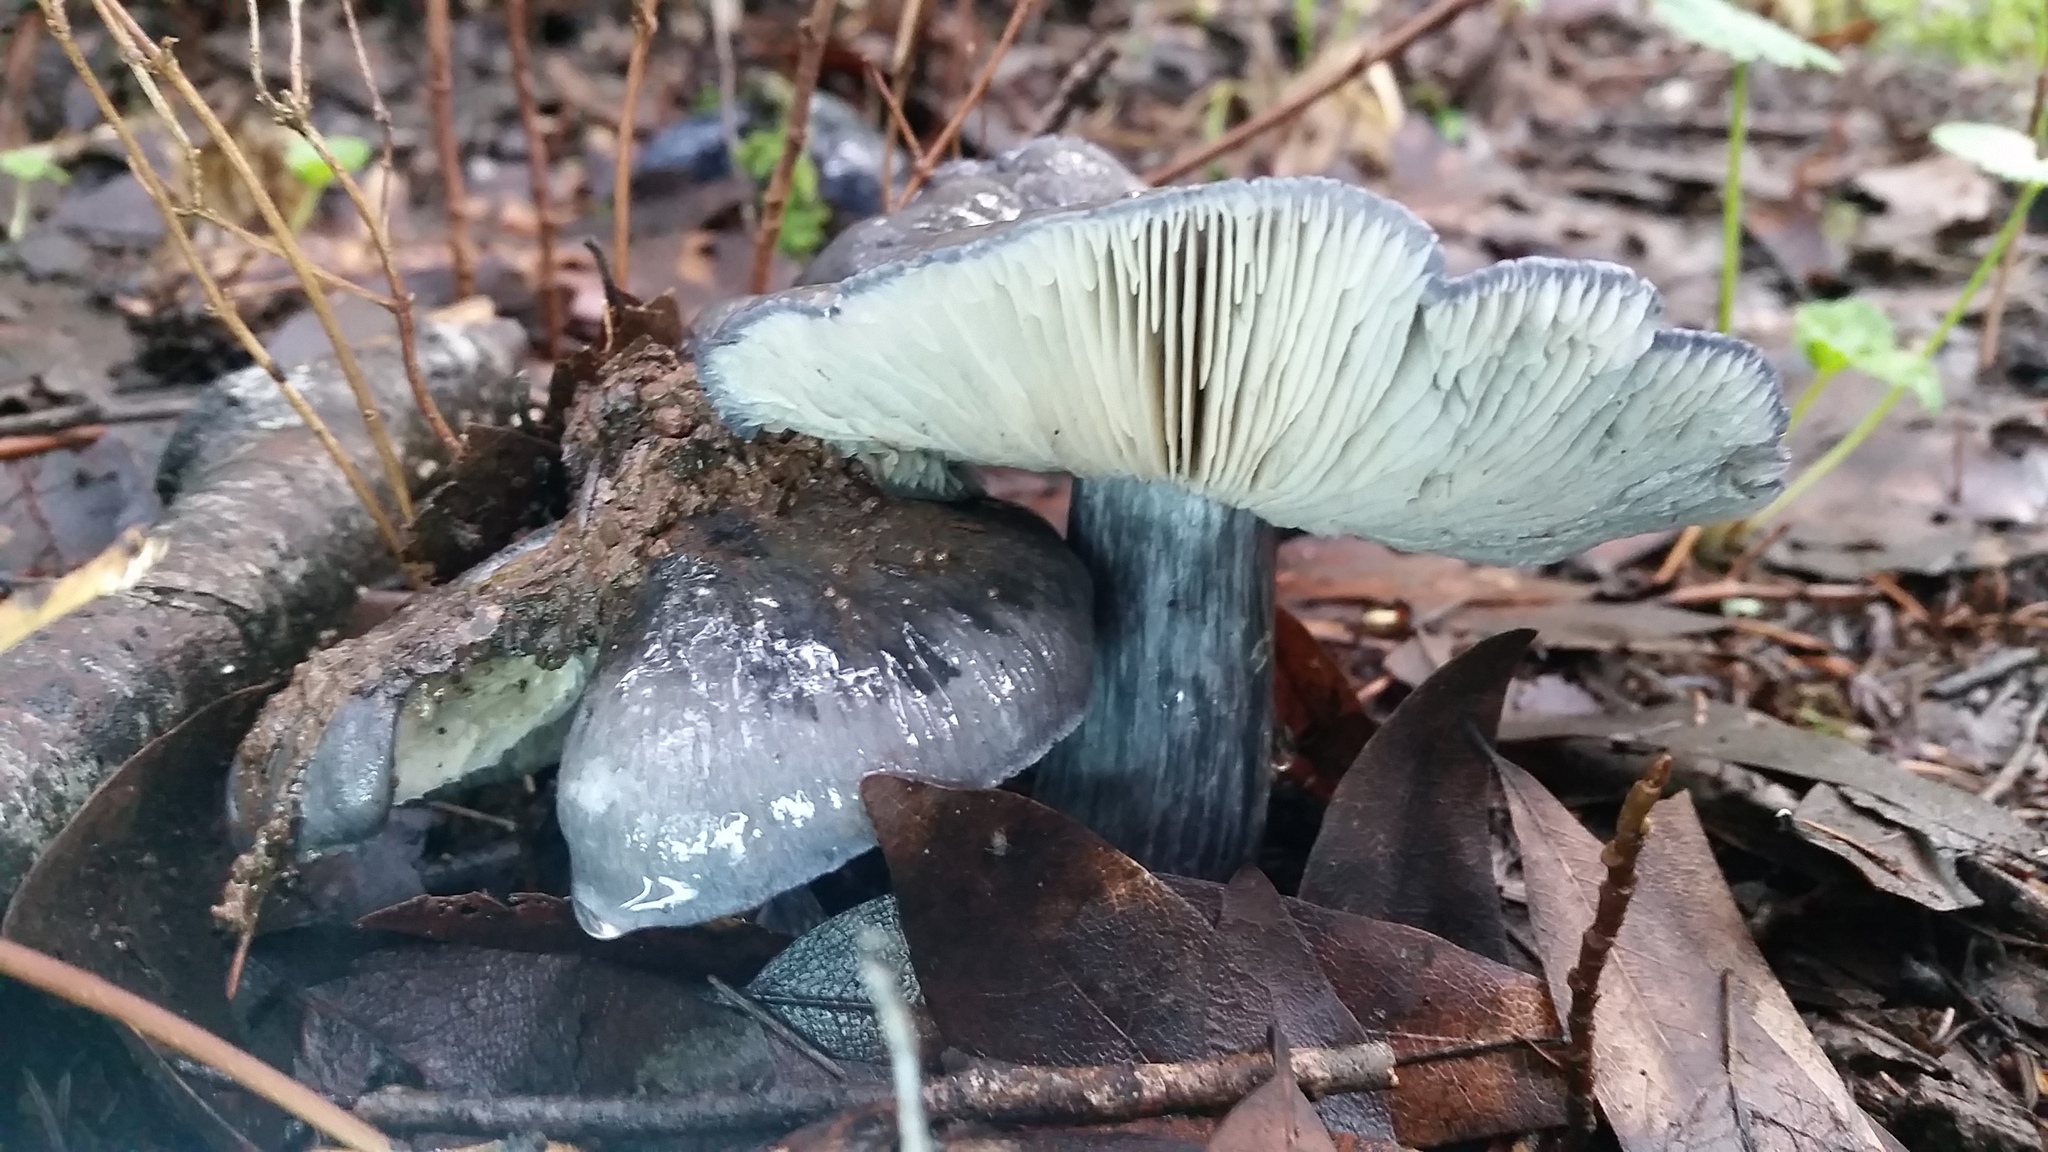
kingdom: Fungi
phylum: Basidiomycota
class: Agaricomycetes
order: Agaricales
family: Entolomataceae
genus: Entoloma
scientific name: Entoloma medianox
